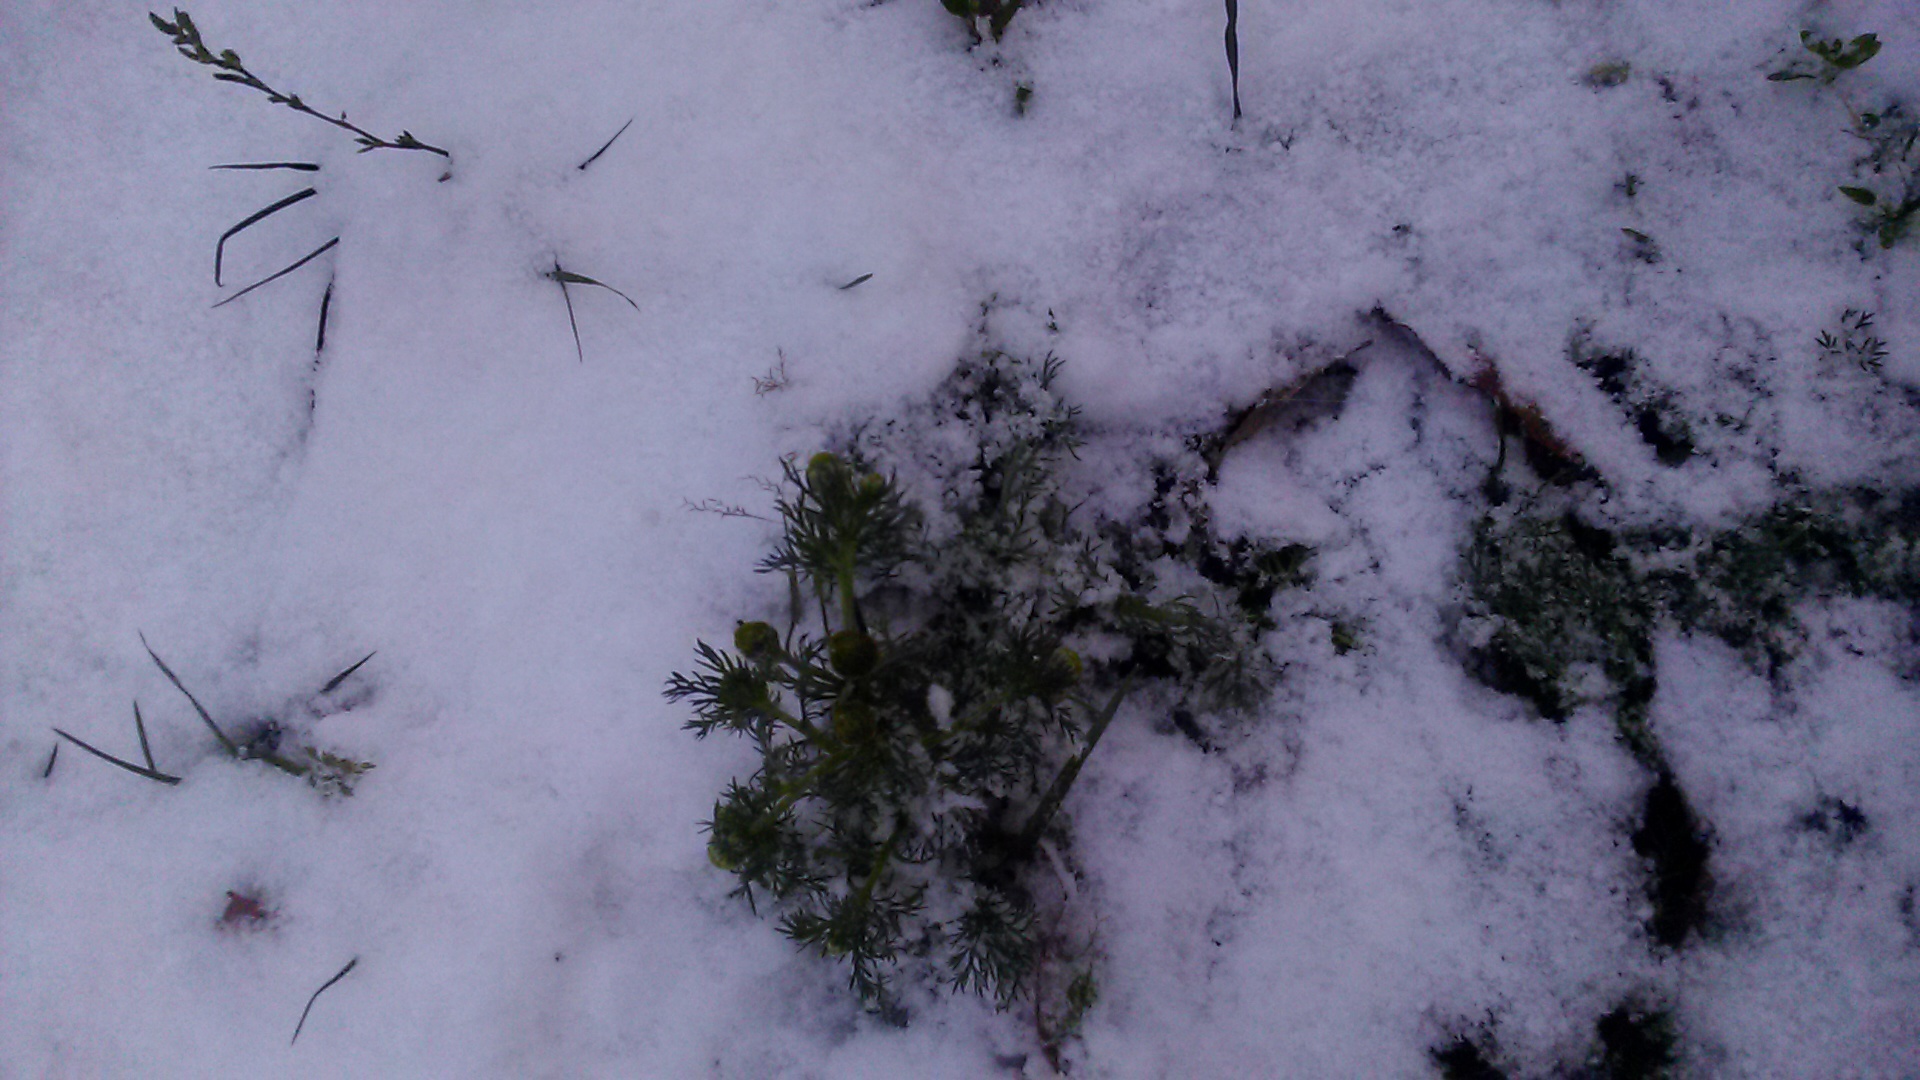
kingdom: Plantae
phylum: Tracheophyta
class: Magnoliopsida
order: Asterales
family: Asteraceae
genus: Matricaria
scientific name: Matricaria discoidea
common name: Disc mayweed
